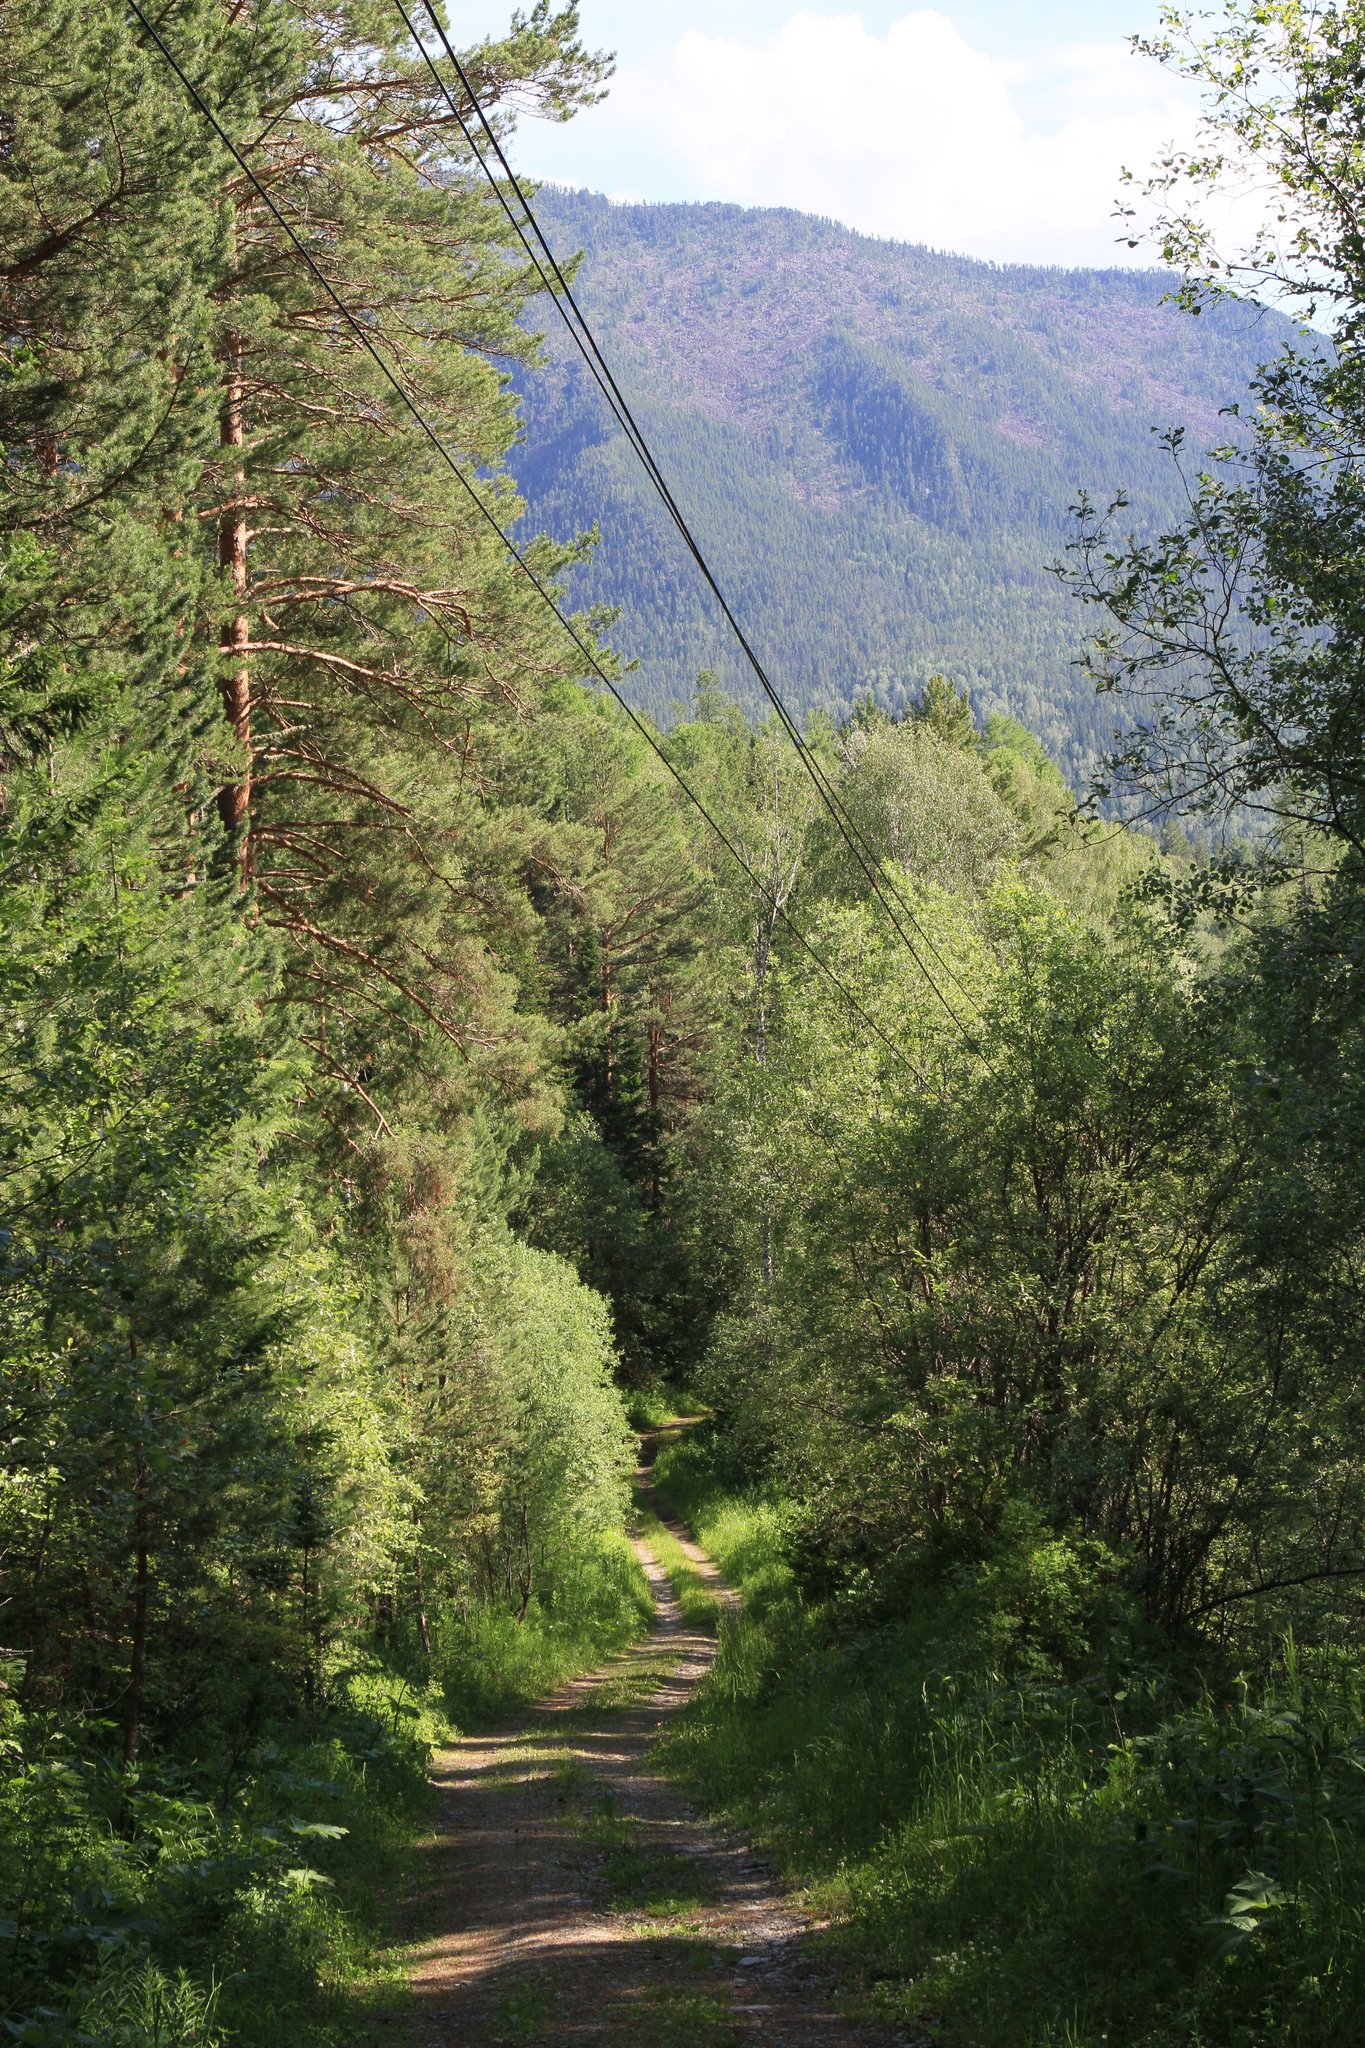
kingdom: Plantae
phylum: Tracheophyta
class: Pinopsida
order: Pinales
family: Pinaceae
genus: Pinus
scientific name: Pinus sylvestris
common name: Scots pine
